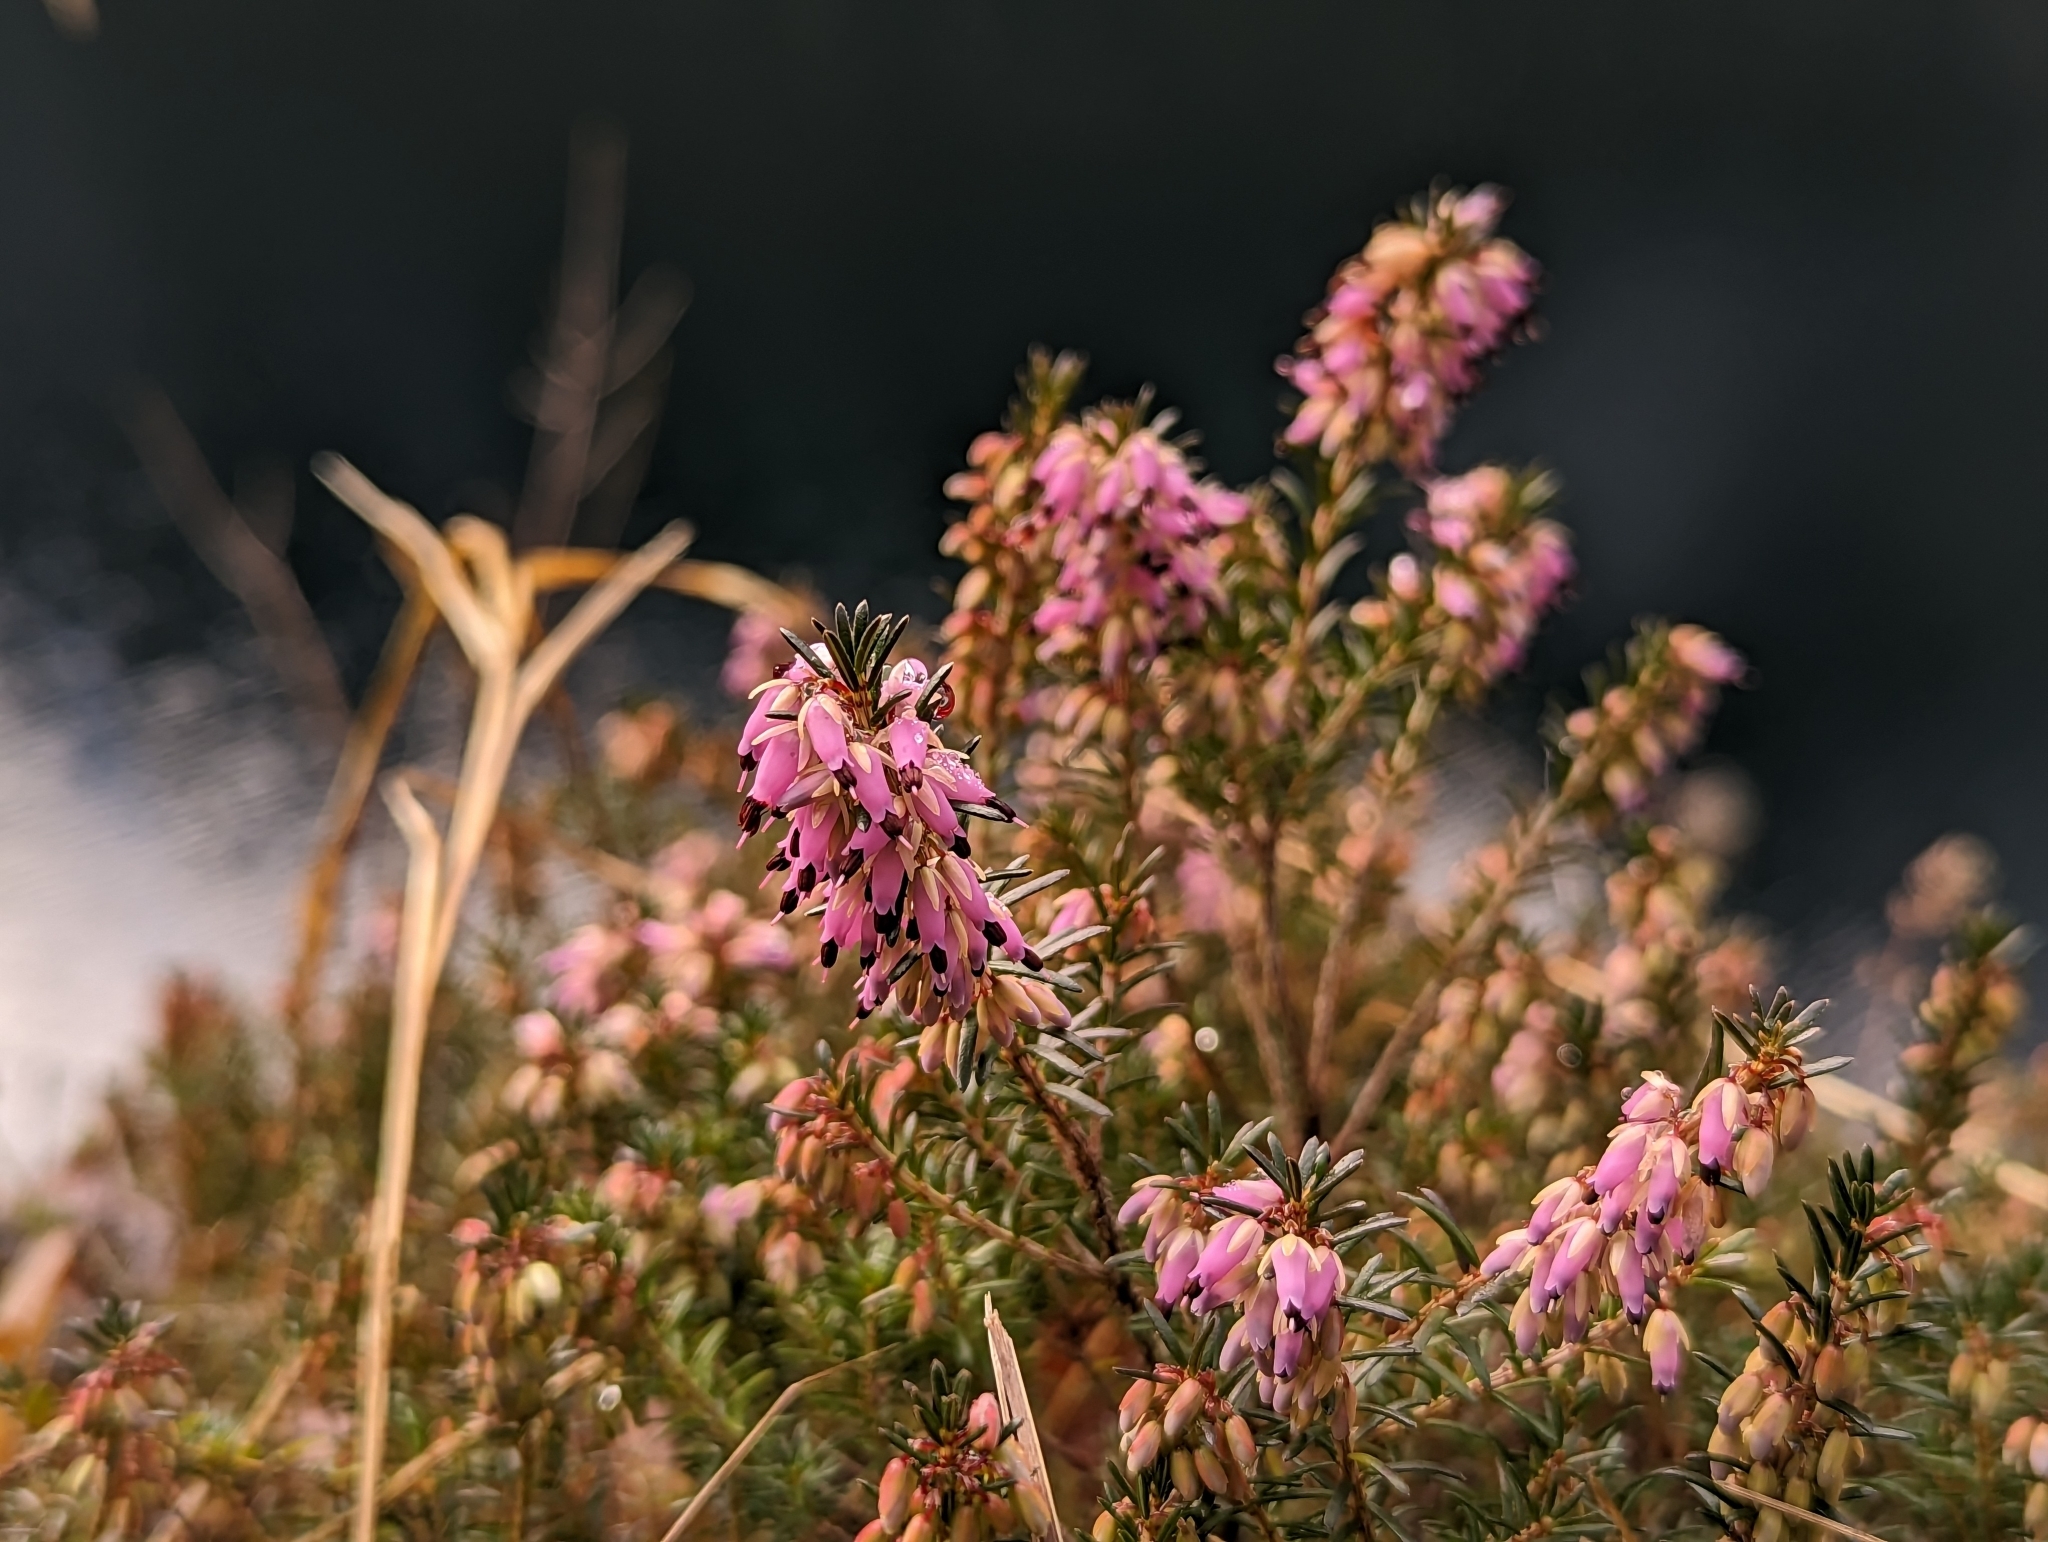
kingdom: Plantae
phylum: Tracheophyta
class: Magnoliopsida
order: Ericales
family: Ericaceae
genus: Erica
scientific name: Erica carnea
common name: Winter heath
